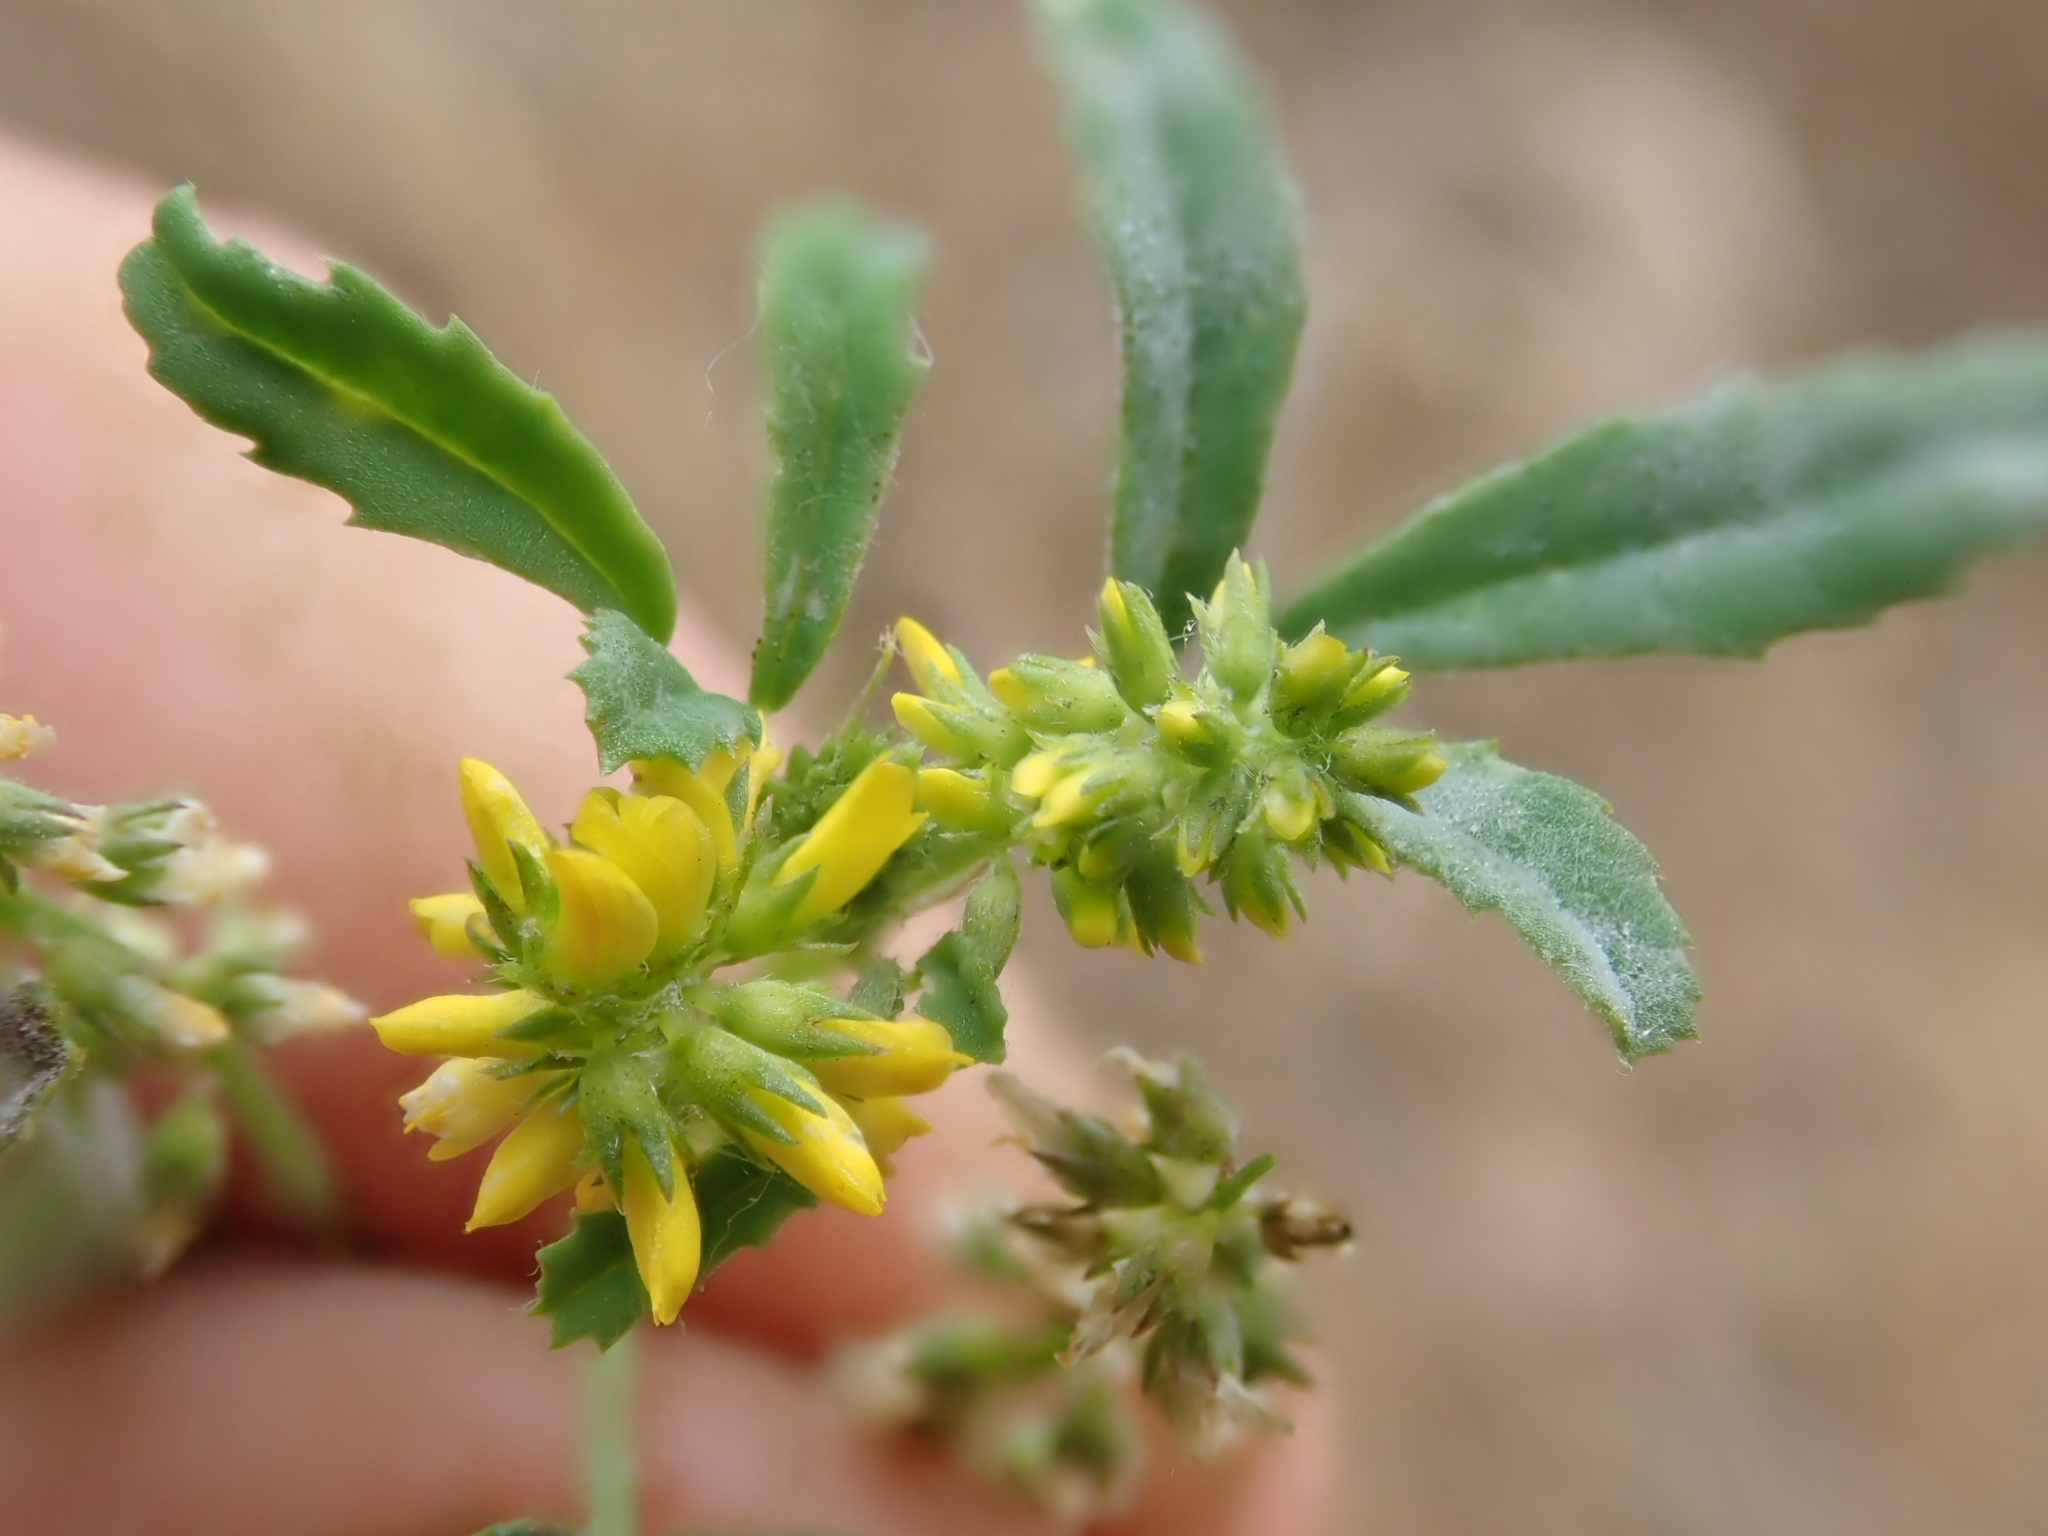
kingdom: Plantae
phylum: Tracheophyta
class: Magnoliopsida
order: Fabales
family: Fabaceae
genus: Melilotus
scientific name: Melilotus indicus
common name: Small melilot
